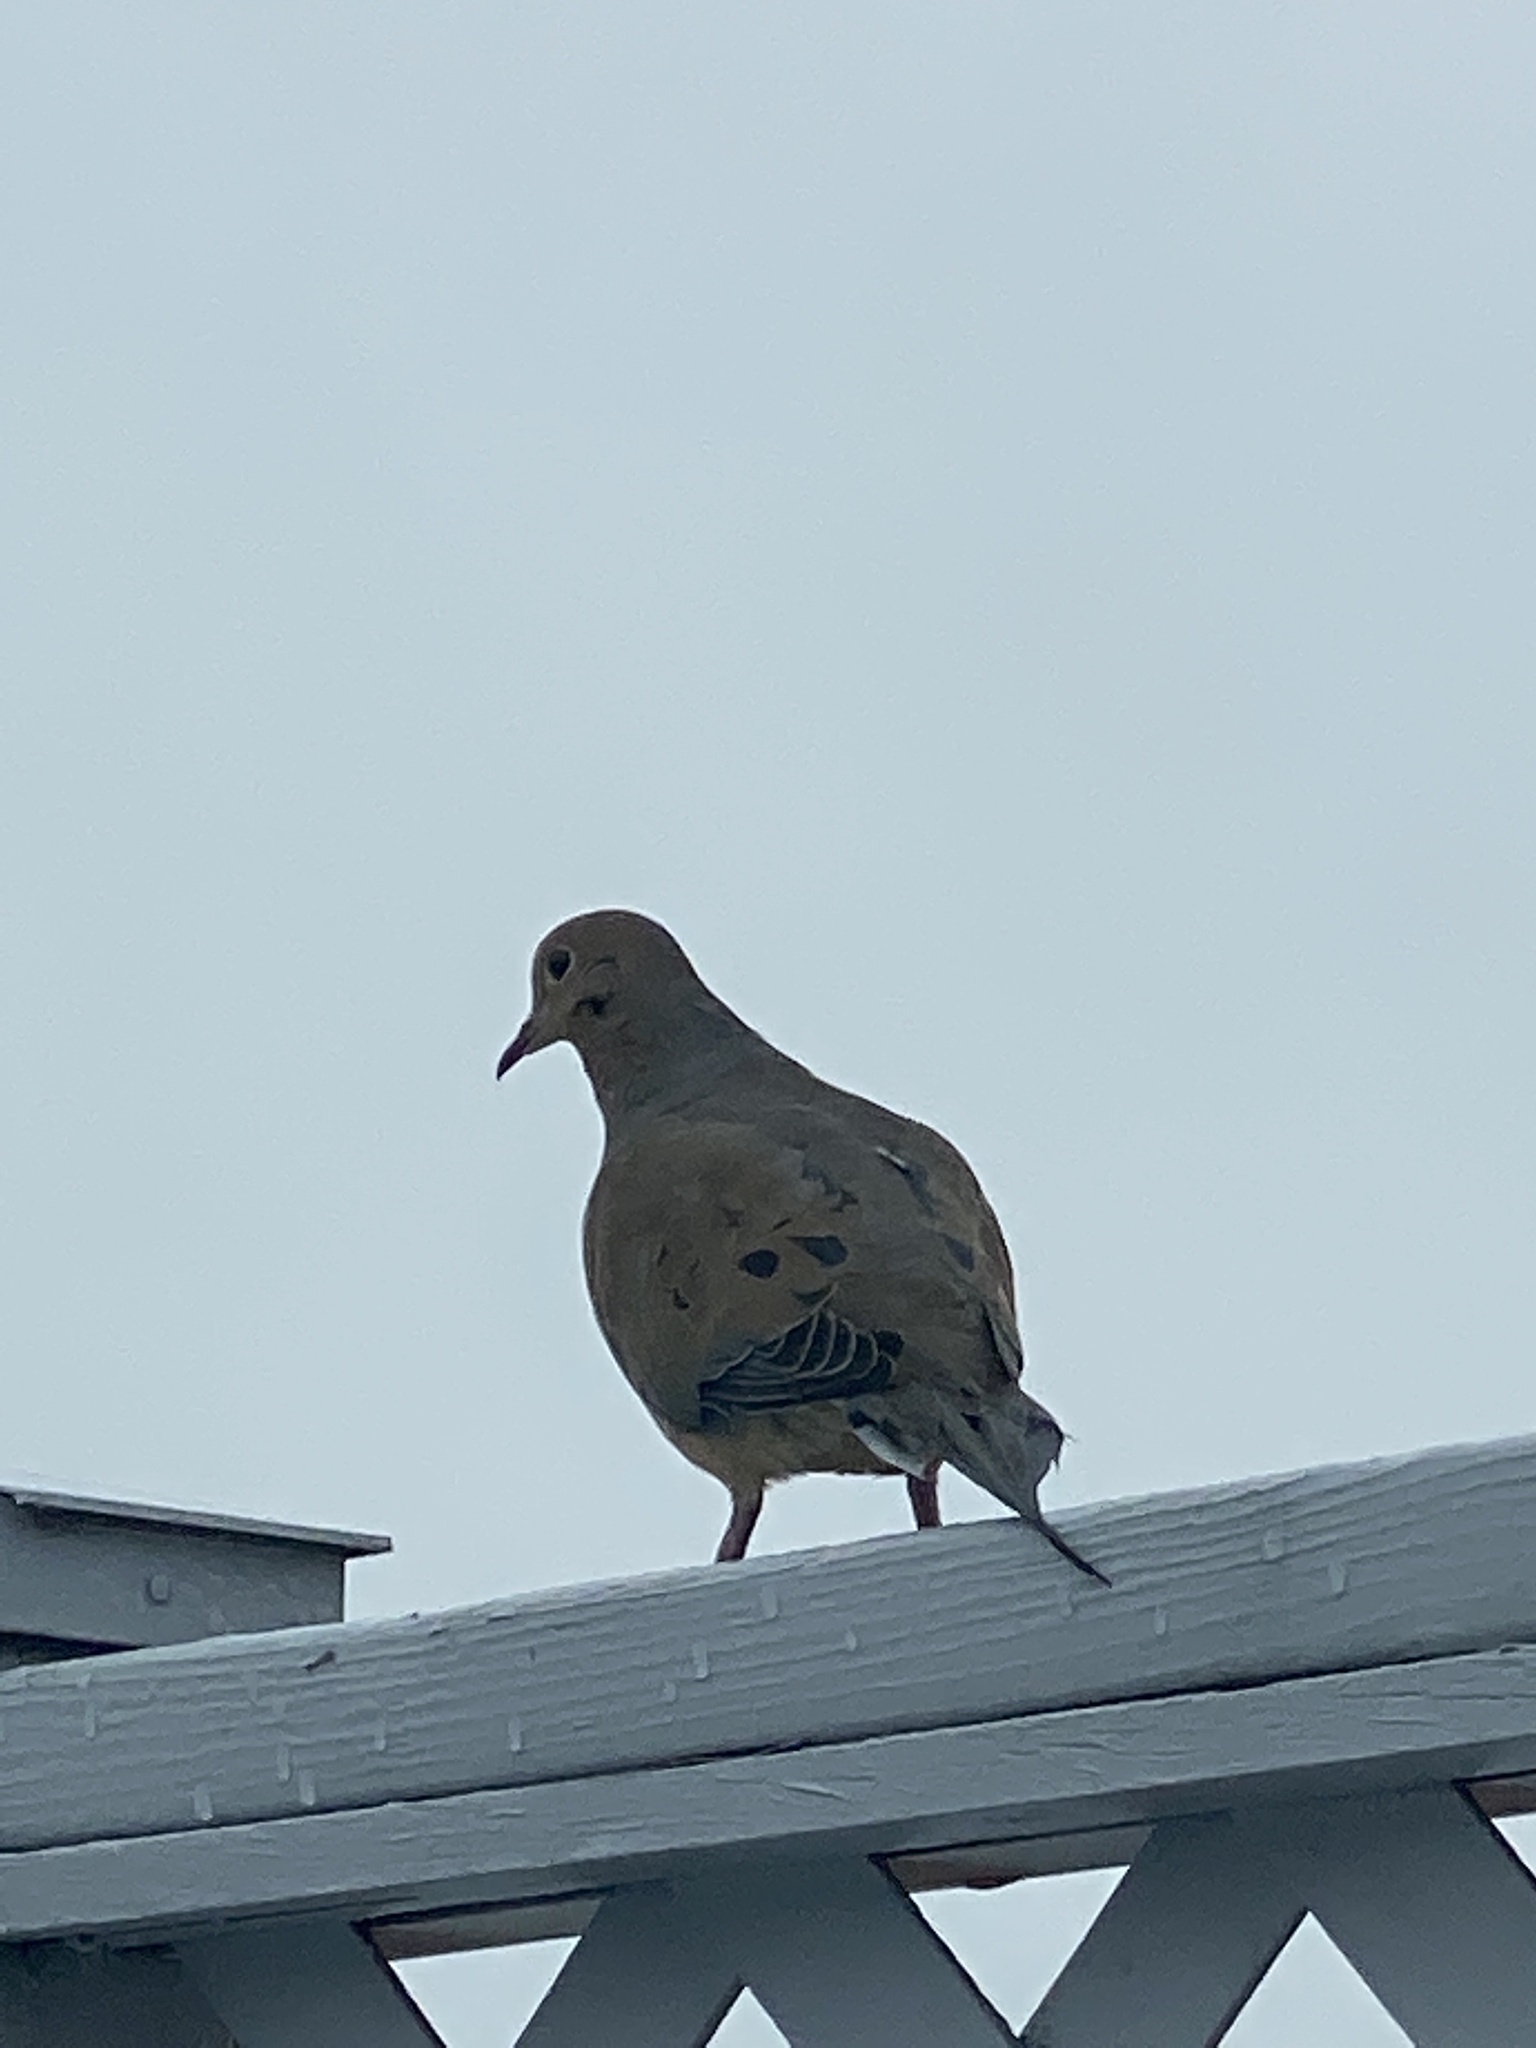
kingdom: Animalia
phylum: Chordata
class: Aves
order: Columbiformes
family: Columbidae
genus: Zenaida
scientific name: Zenaida macroura
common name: Mourning dove
